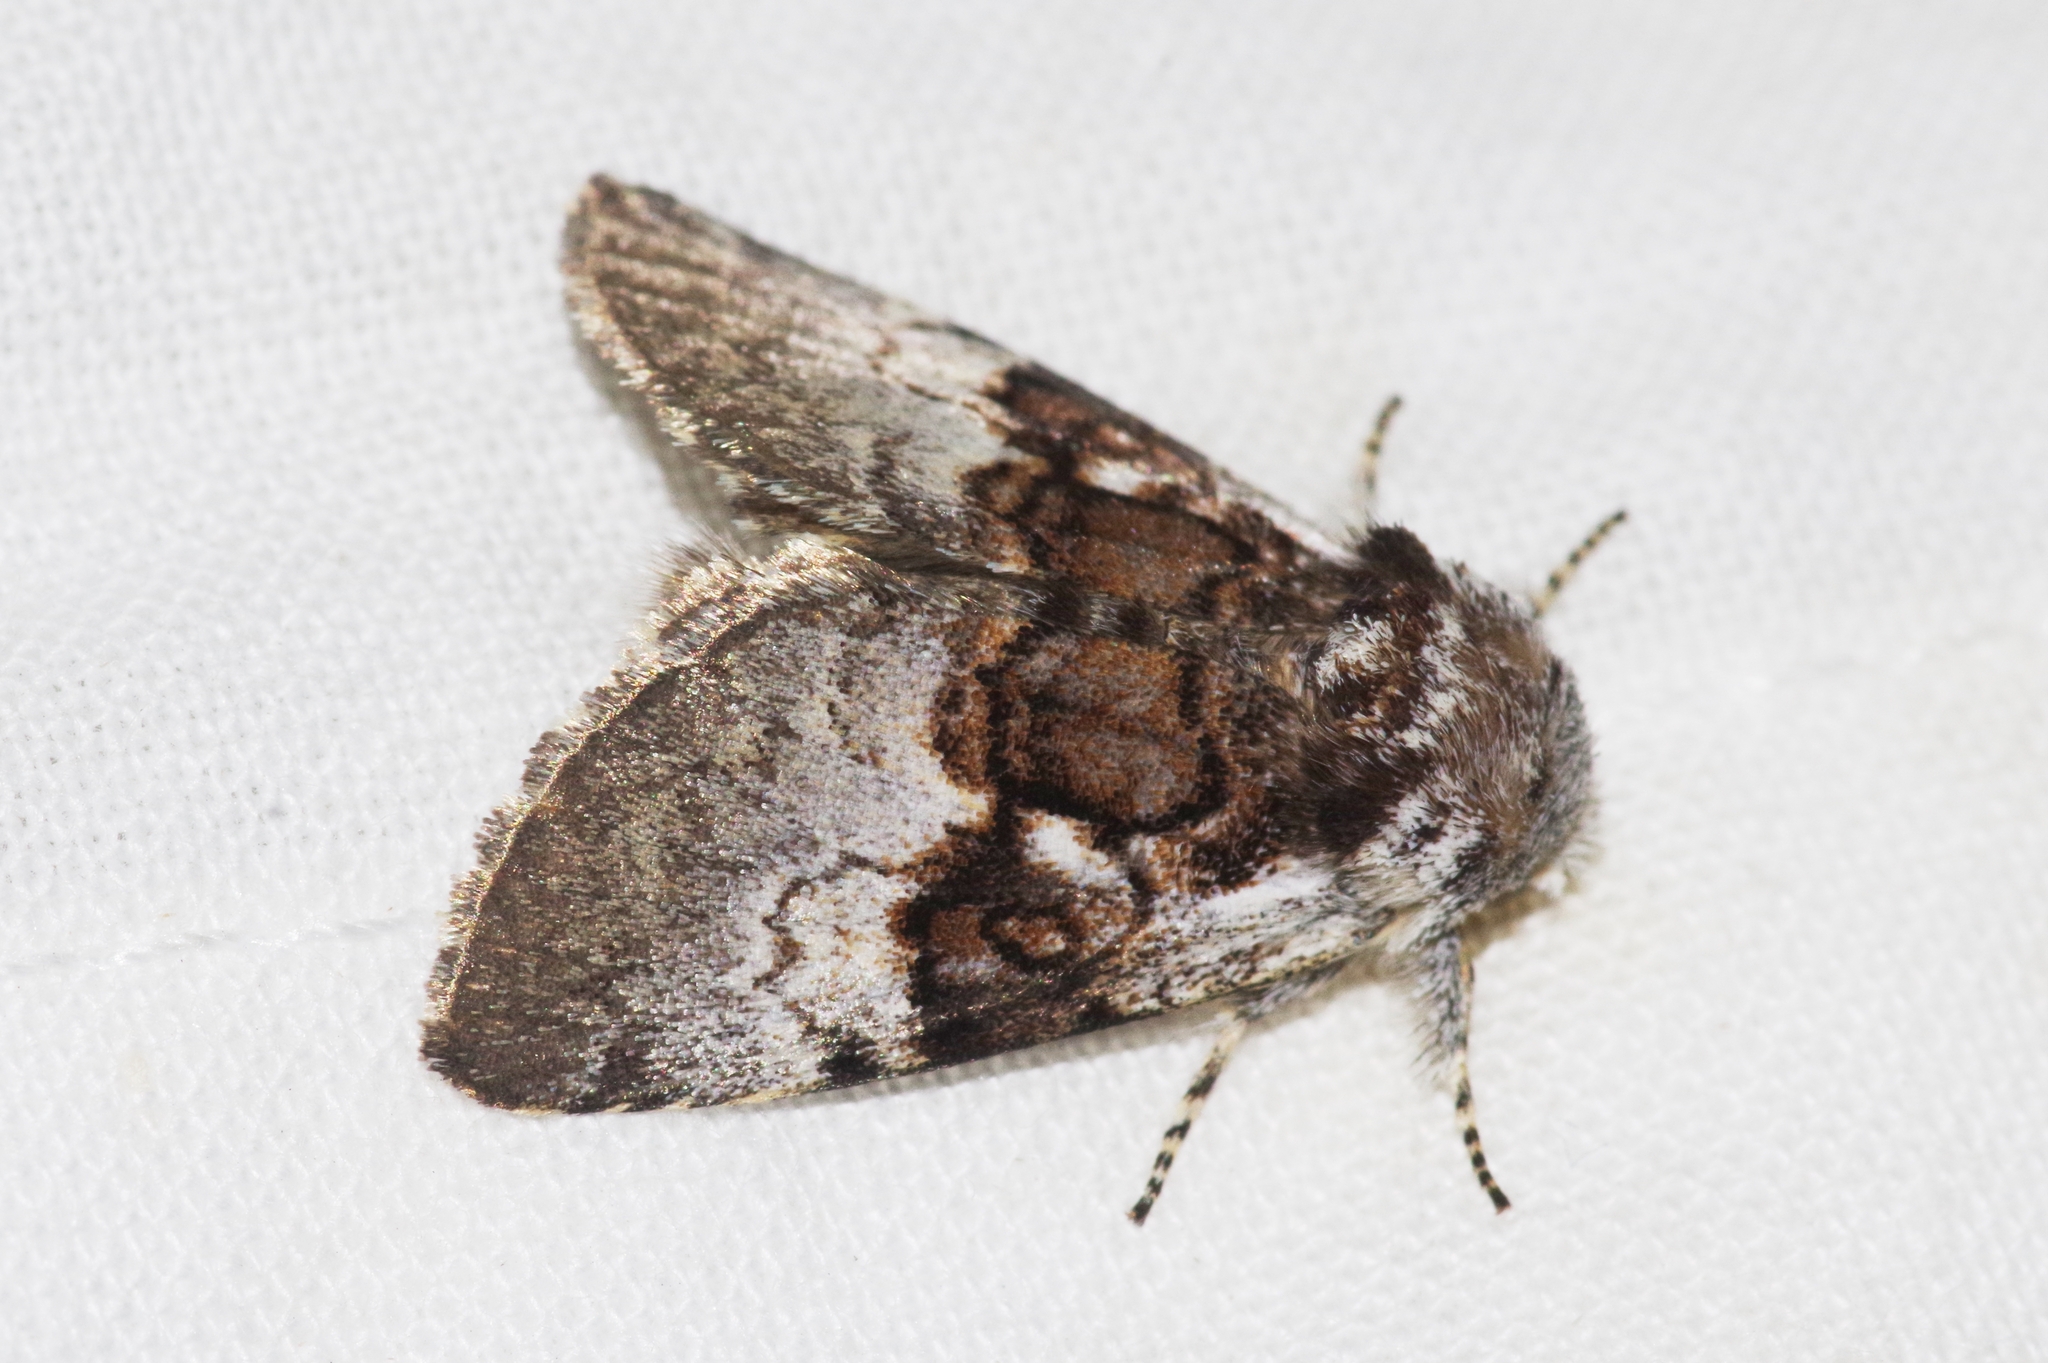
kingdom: Animalia
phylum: Arthropoda
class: Insecta
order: Lepidoptera
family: Noctuidae
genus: Colocasia
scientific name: Colocasia mus
